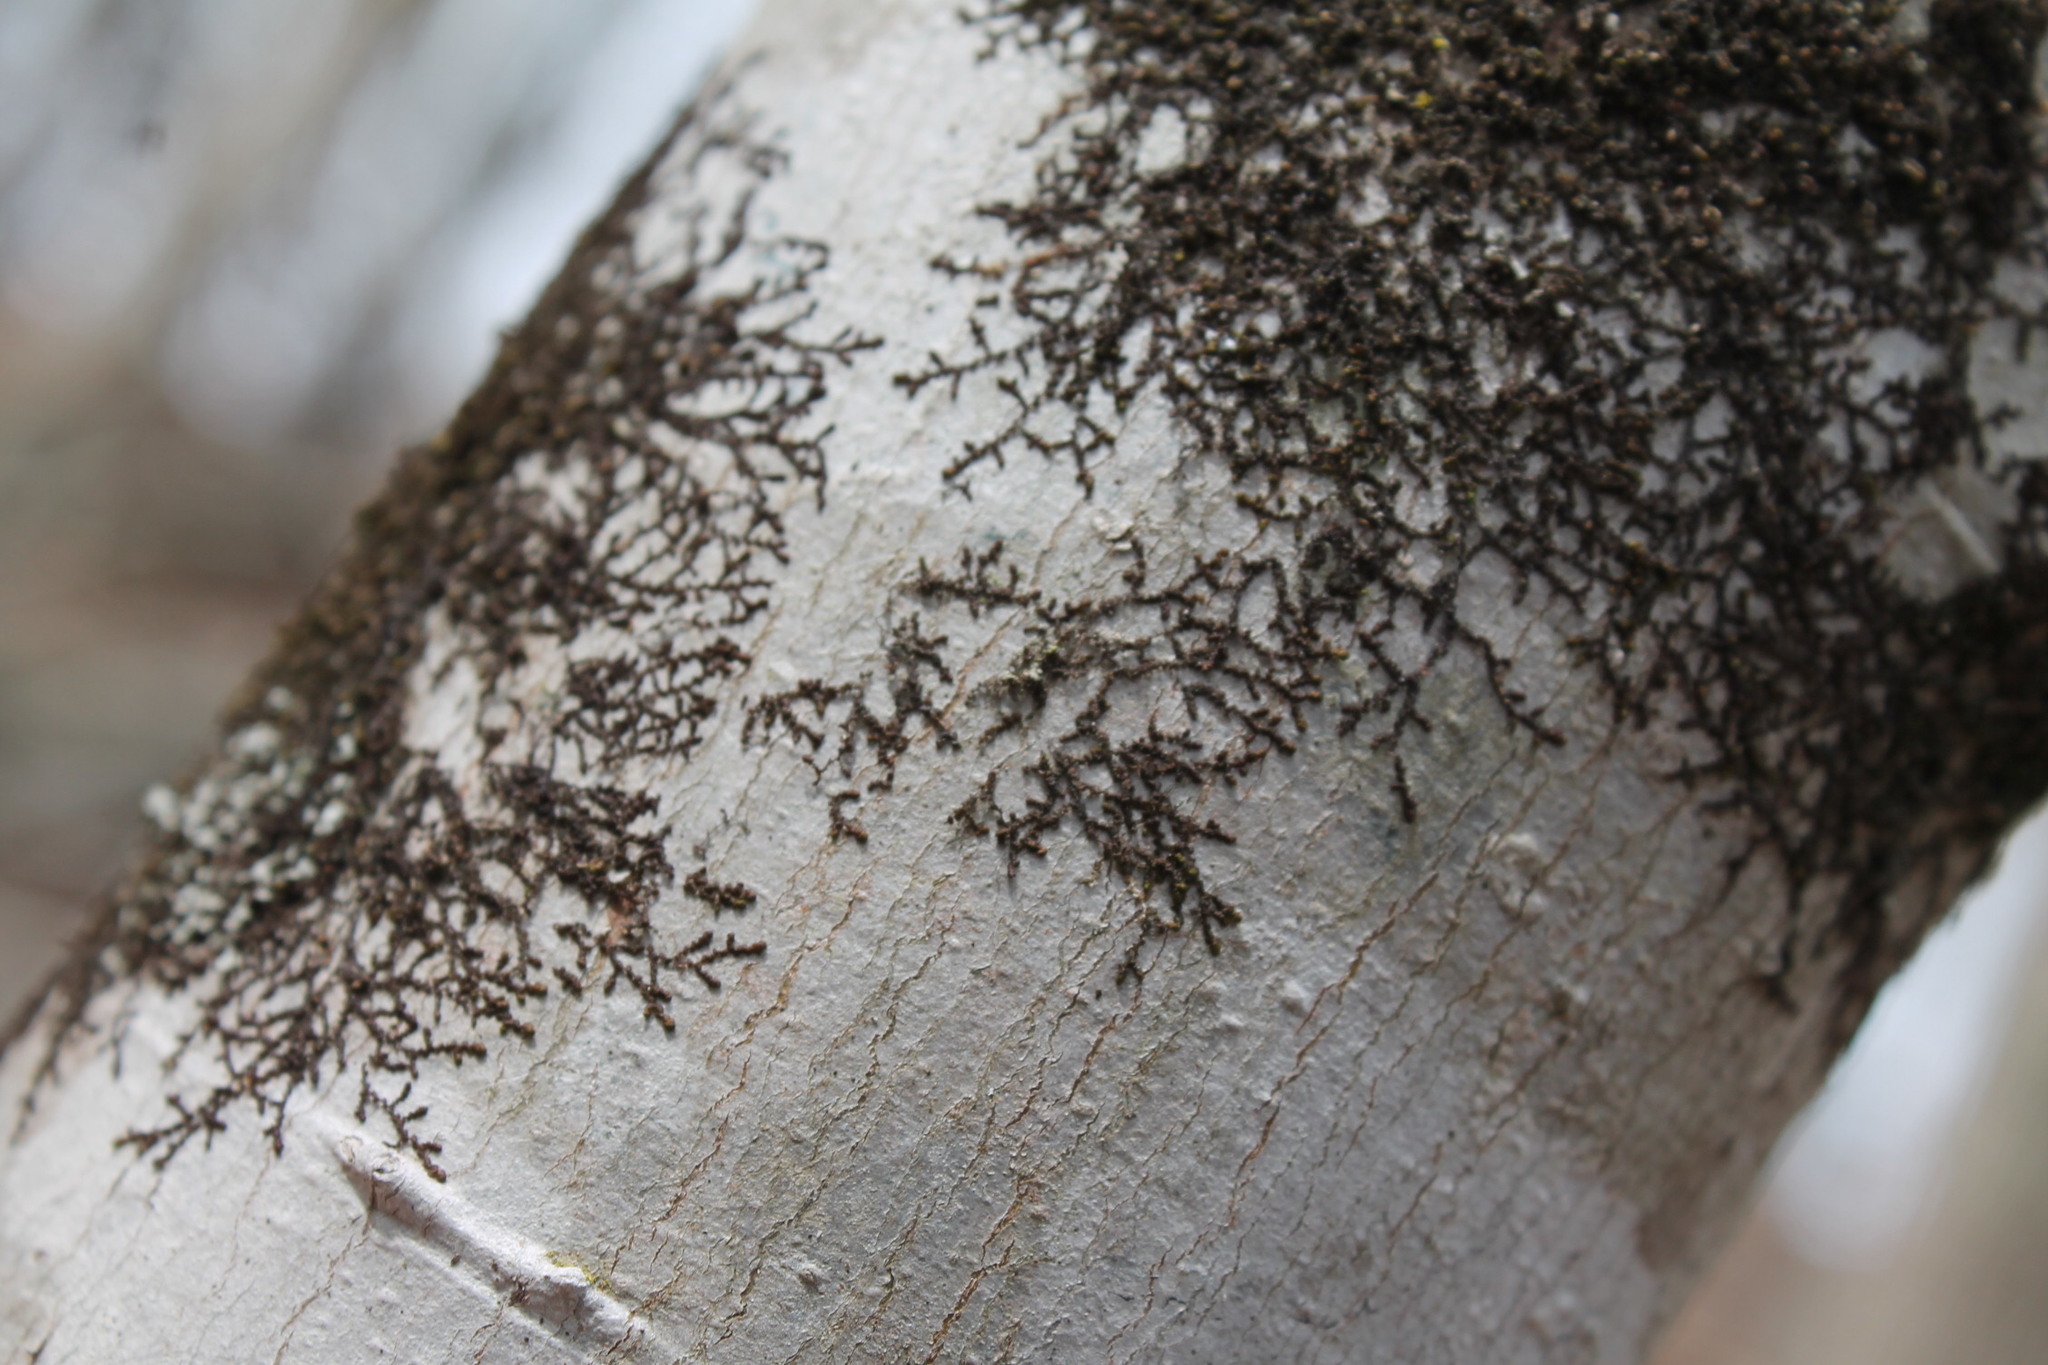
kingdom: Plantae
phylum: Marchantiophyta
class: Jungermanniopsida
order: Porellales
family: Frullaniaceae
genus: Frullania
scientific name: Frullania eboracensis
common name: New york scalewort
